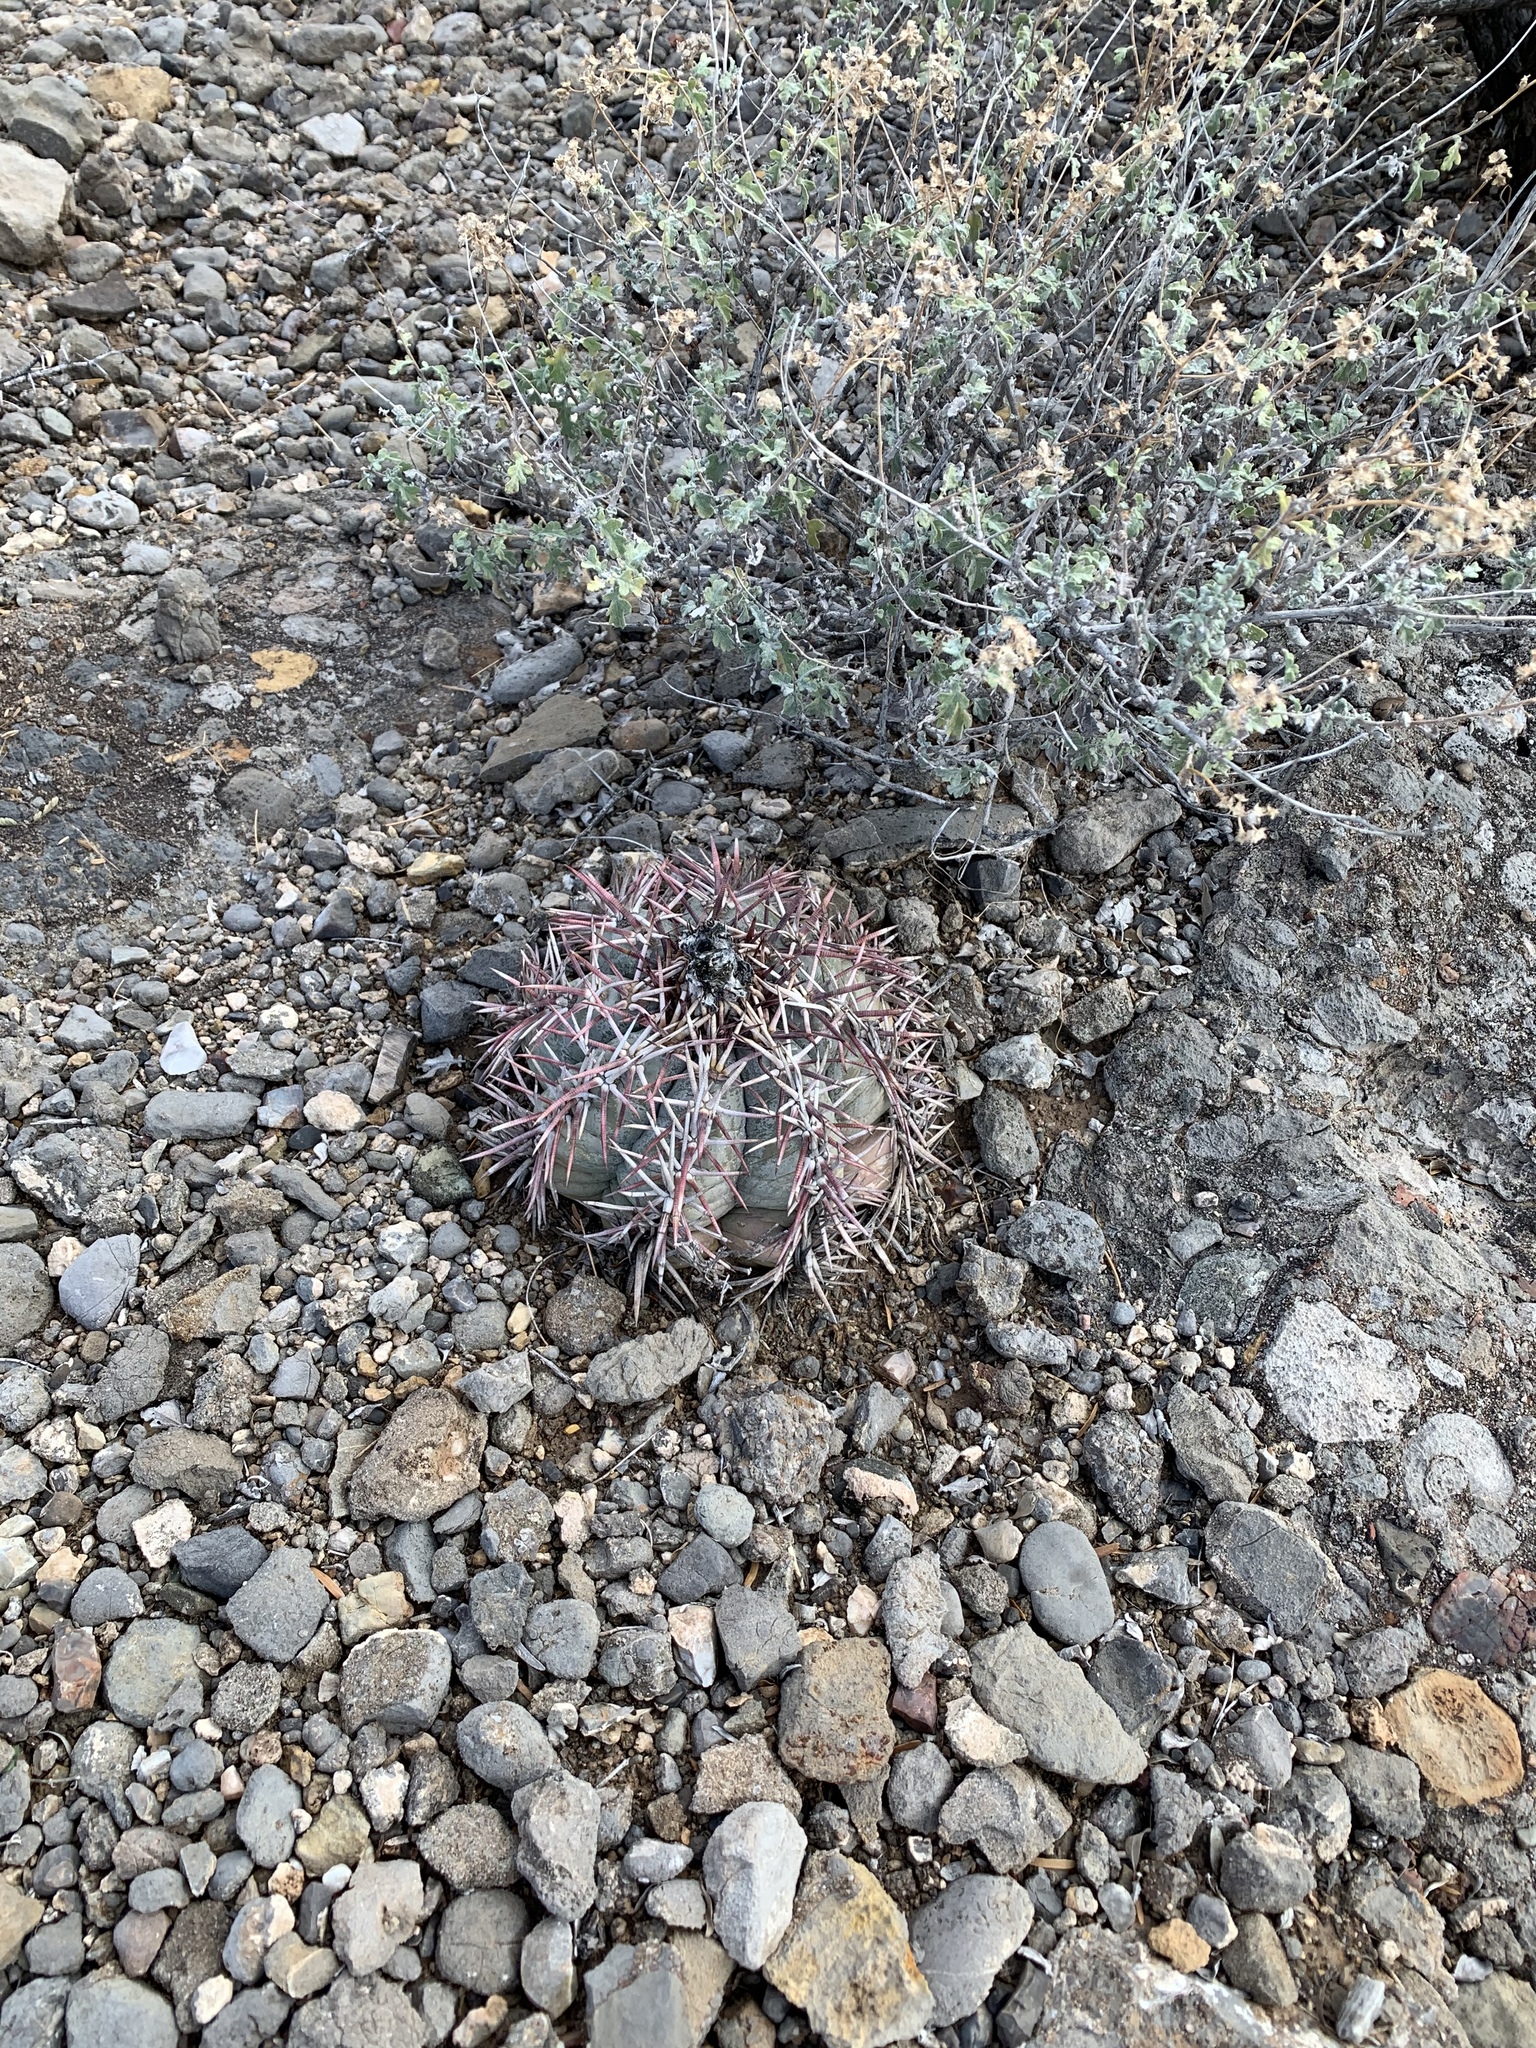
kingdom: Plantae
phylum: Tracheophyta
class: Magnoliopsida
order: Caryophyllales
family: Cactaceae
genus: Echinocactus
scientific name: Echinocactus horizonthalonius
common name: Devilshead
